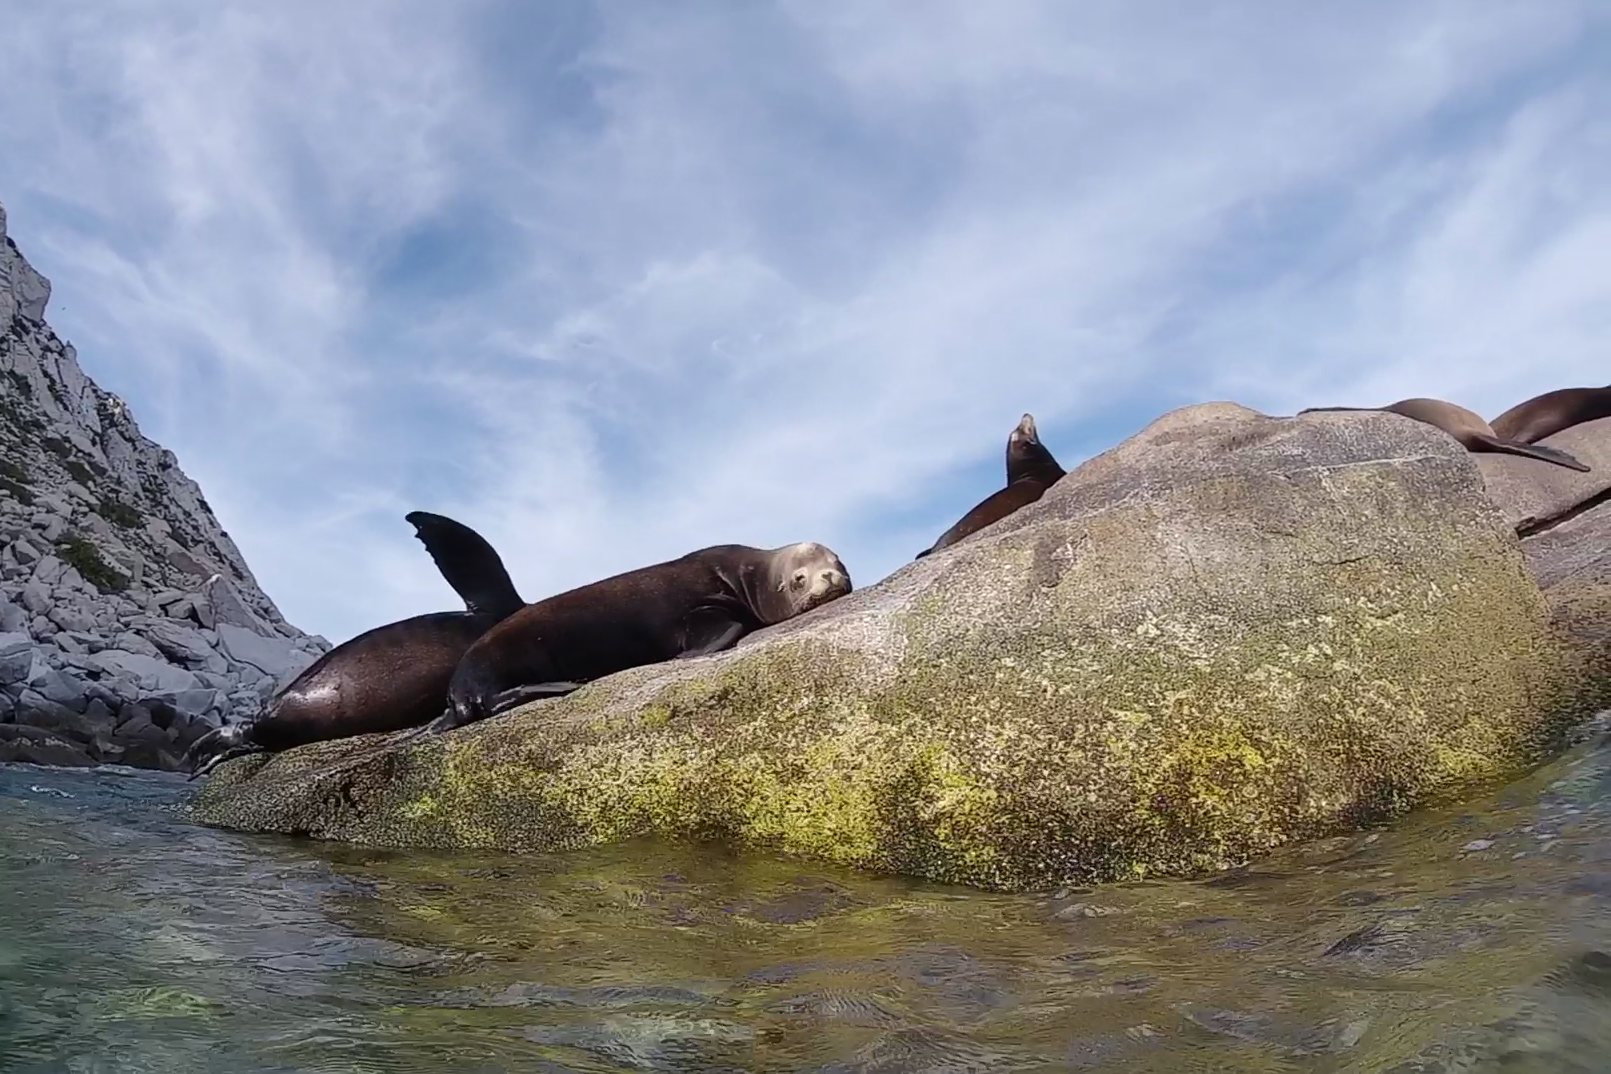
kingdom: Animalia
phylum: Chordata
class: Mammalia
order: Carnivora
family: Otariidae
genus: Zalophus
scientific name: Zalophus californianus
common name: California sea lion
